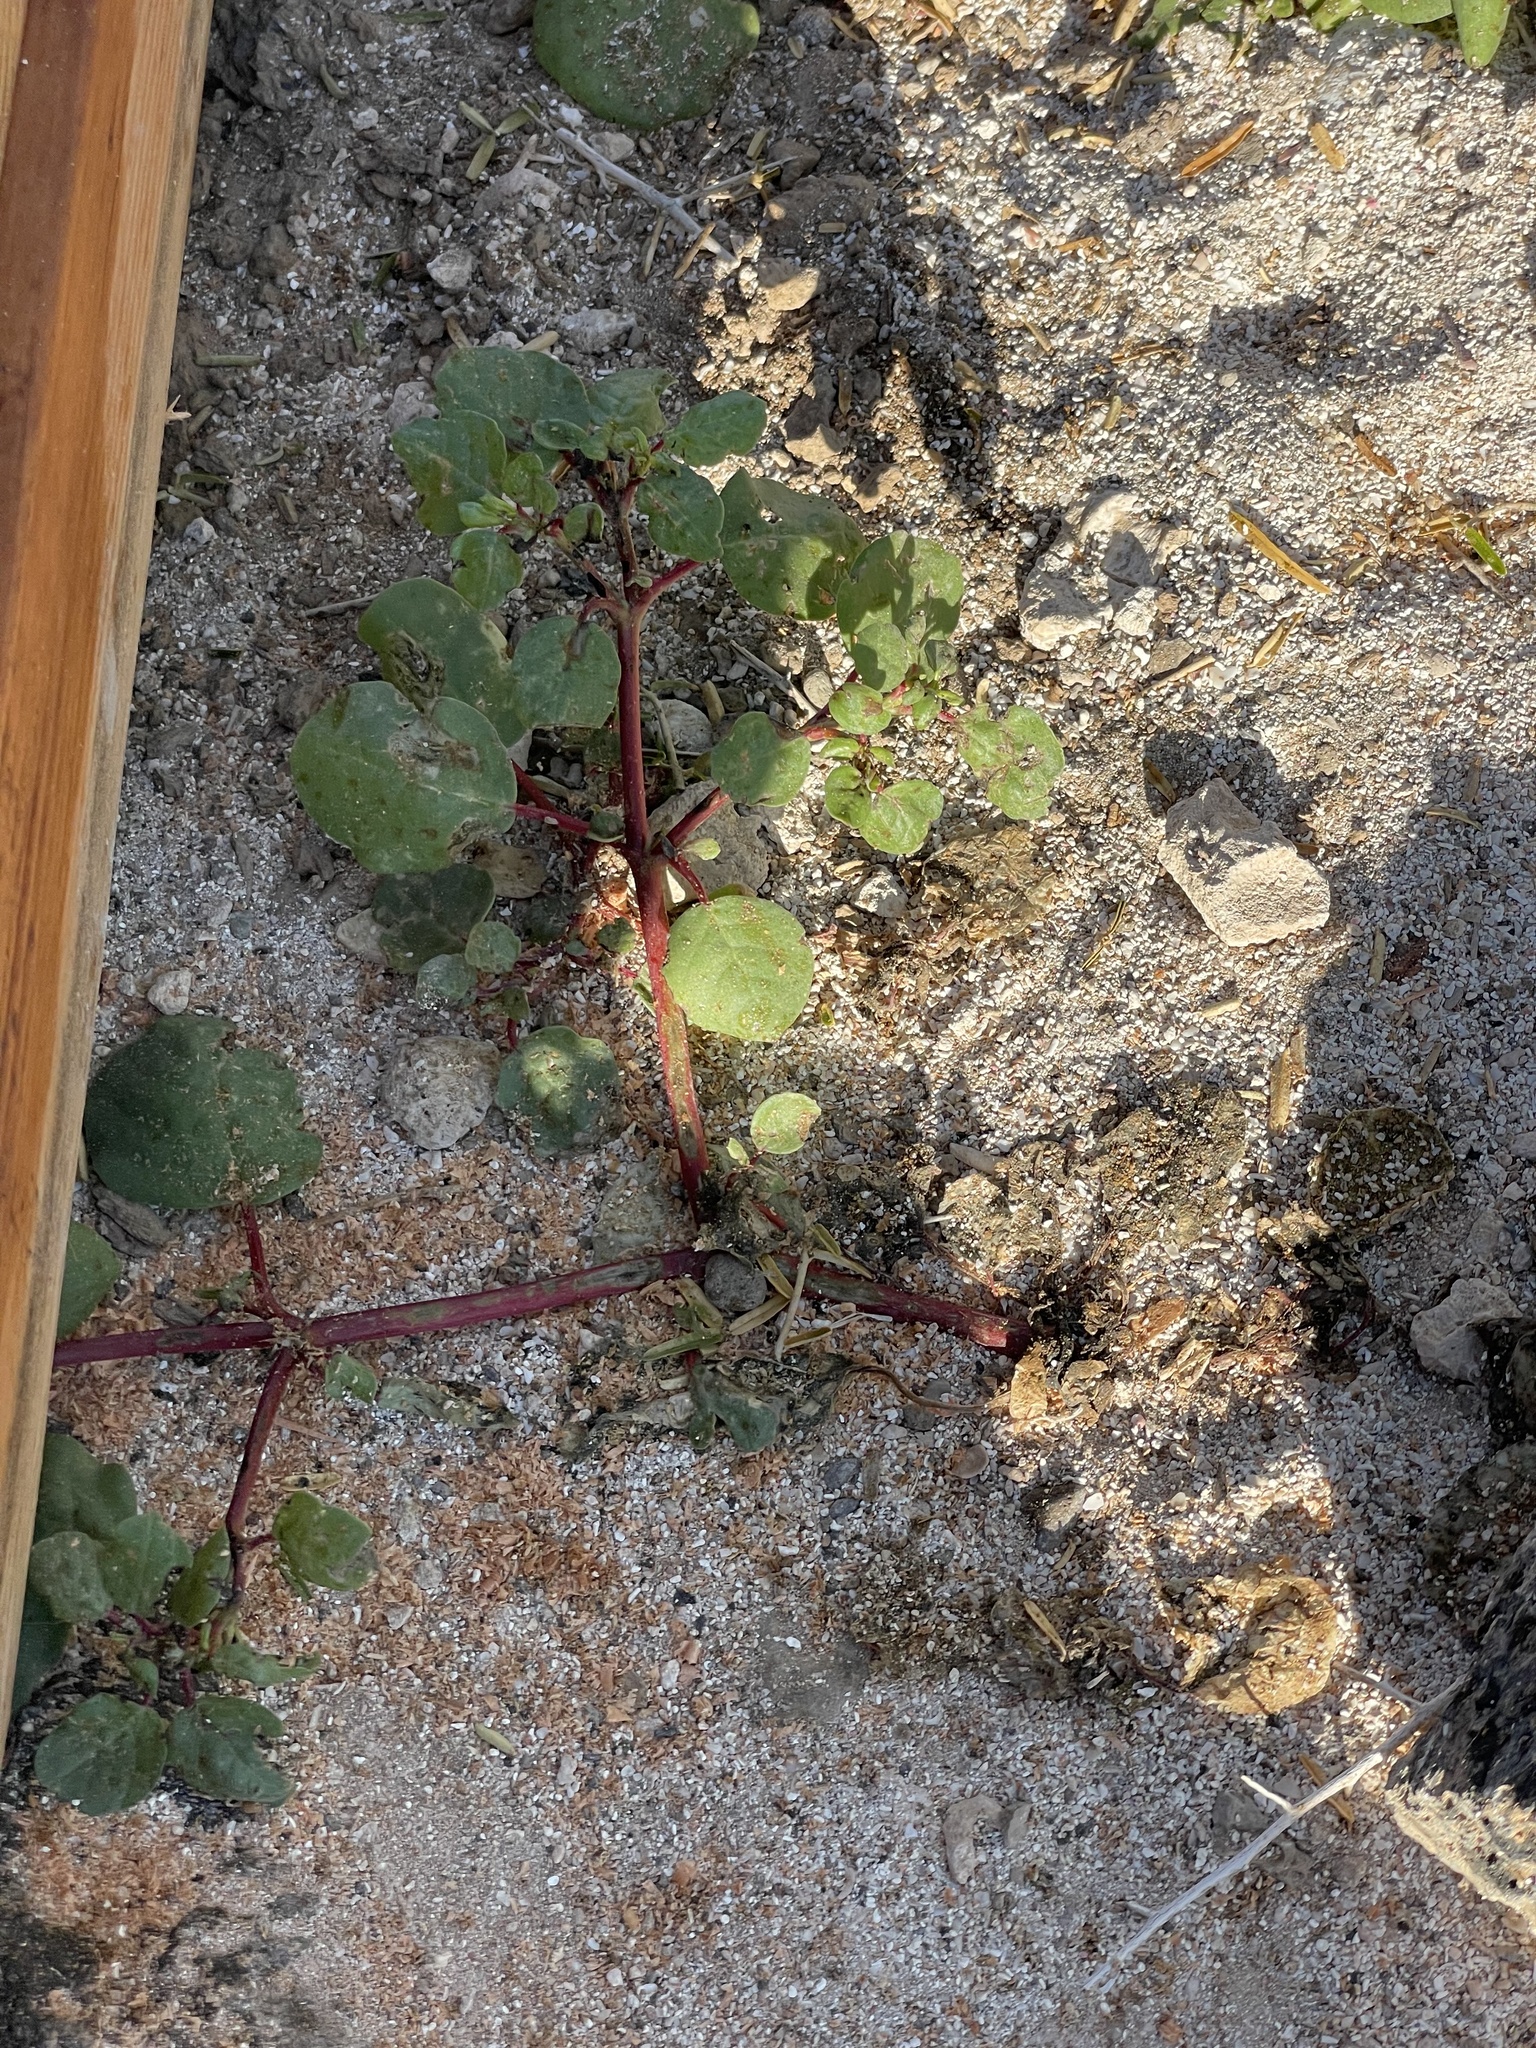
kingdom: Plantae
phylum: Tracheophyta
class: Magnoliopsida
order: Caryophyllales
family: Aizoaceae
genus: Trianthema
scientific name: Trianthema portulacastrum
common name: Desert horsepurslane
